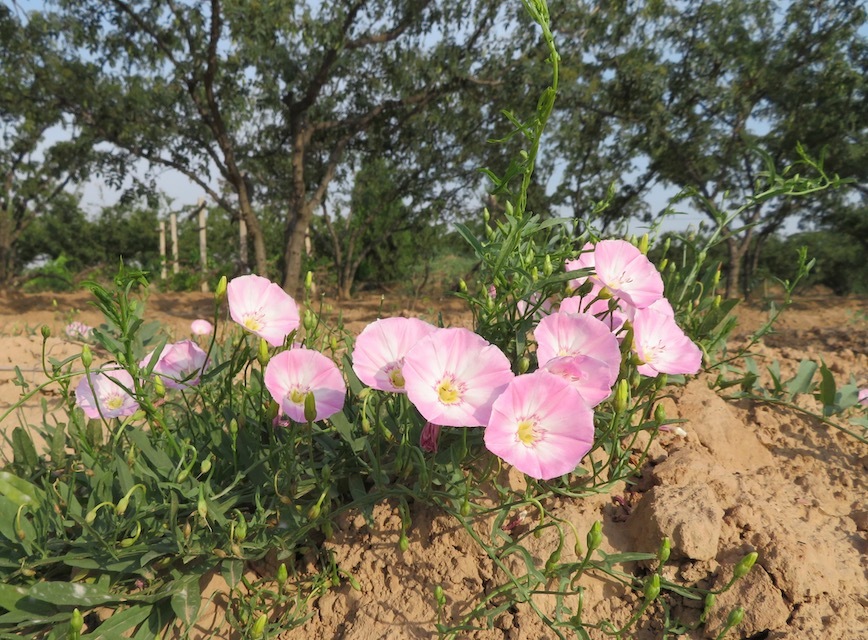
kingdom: Plantae
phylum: Tracheophyta
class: Magnoliopsida
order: Solanales
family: Convolvulaceae
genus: Convolvulus
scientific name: Convolvulus arvensis
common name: Field bindweed
